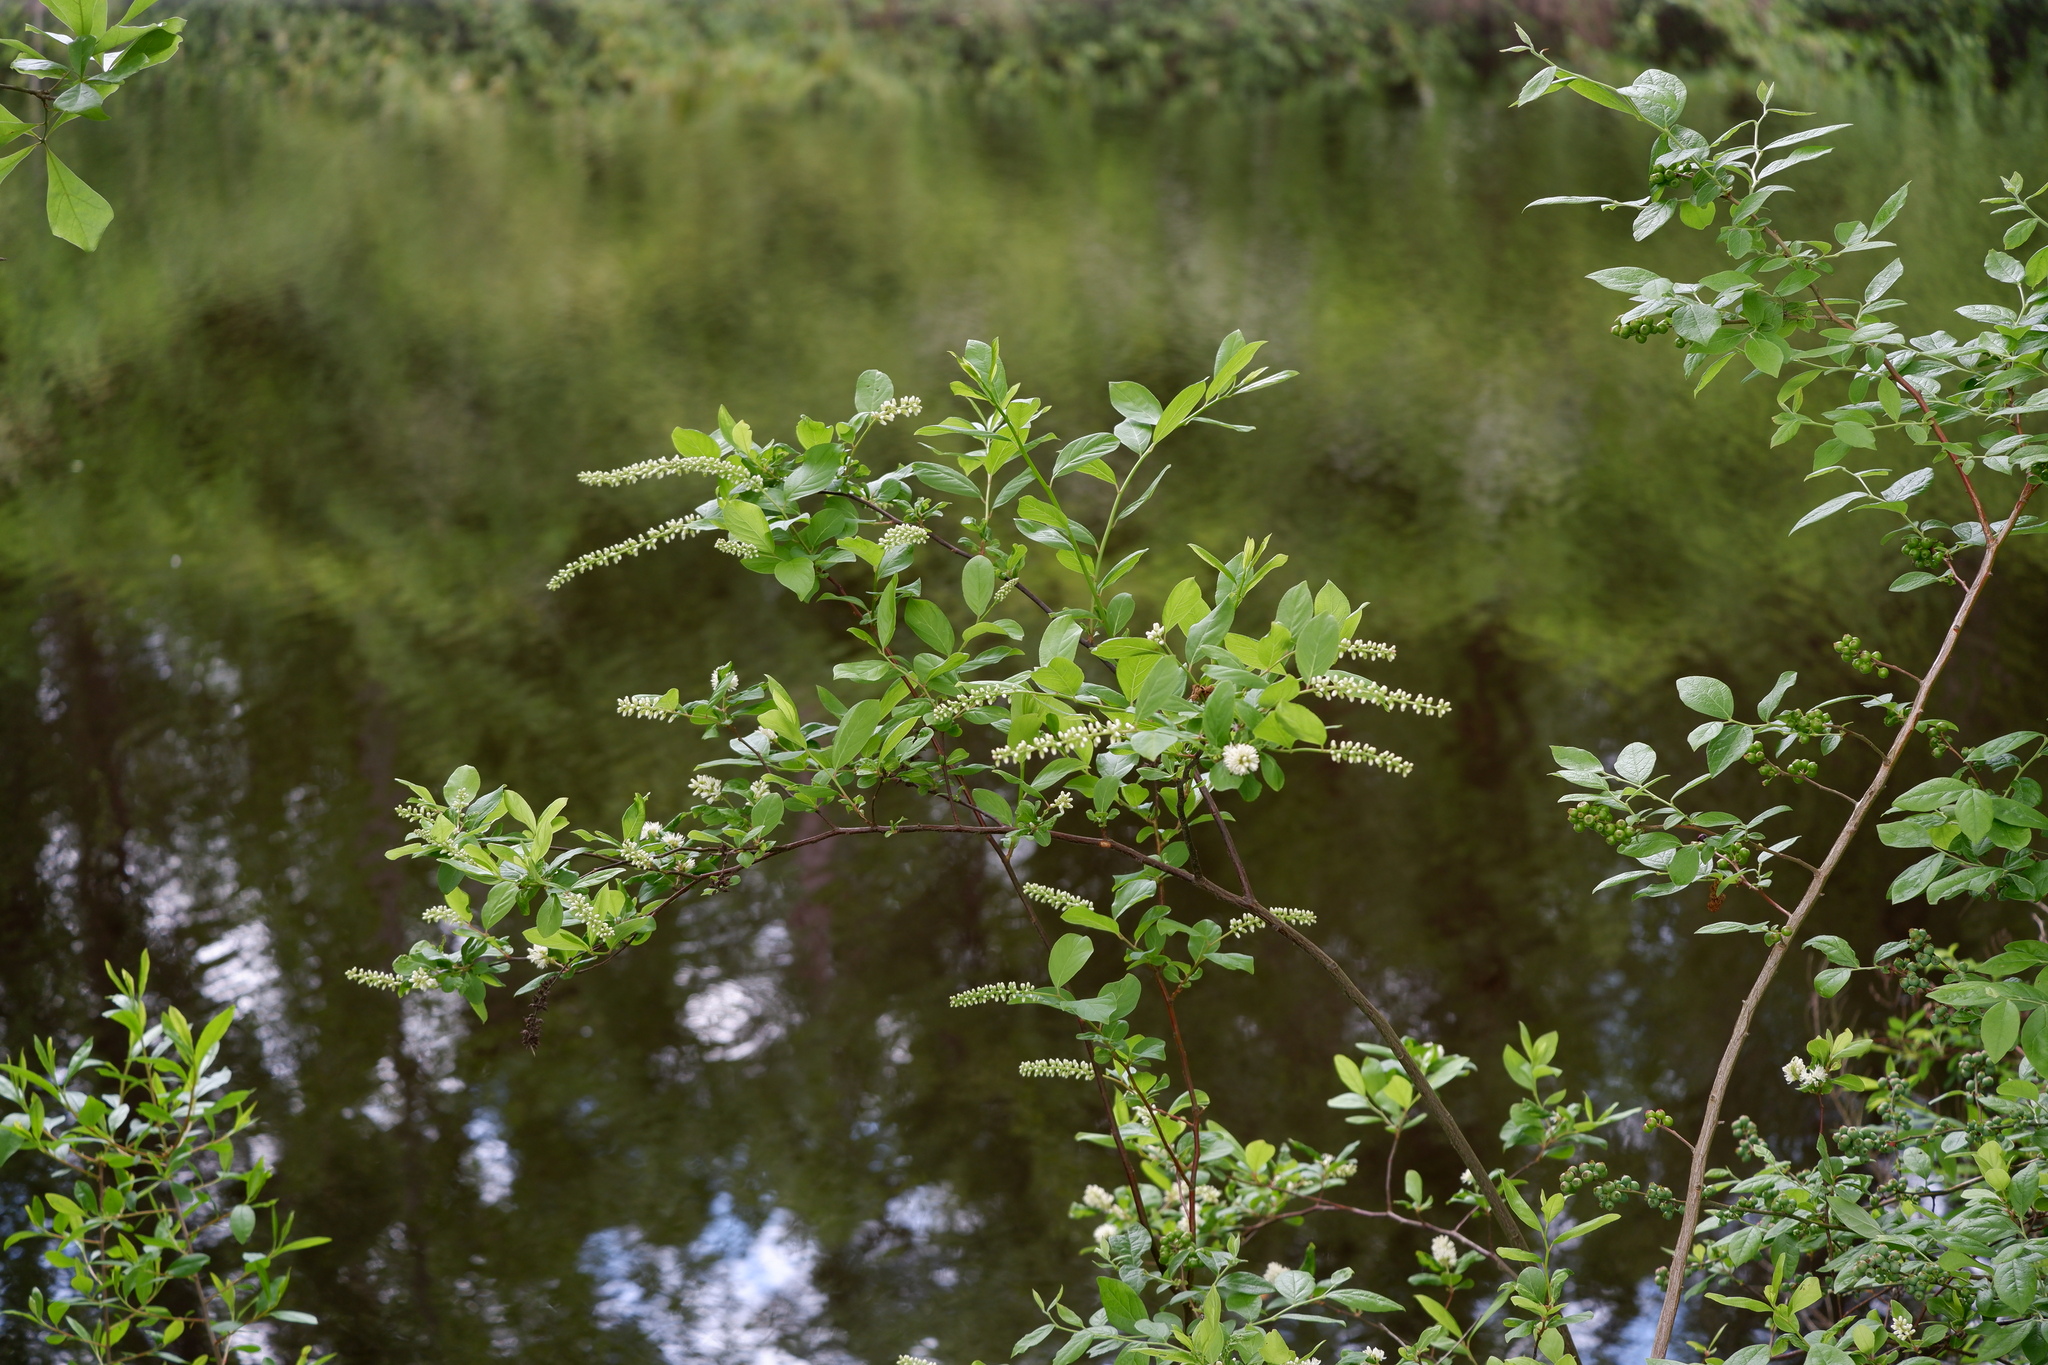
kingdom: Plantae
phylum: Tracheophyta
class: Magnoliopsida
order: Saxifragales
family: Iteaceae
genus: Itea
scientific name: Itea virginica
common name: Sweetspire
